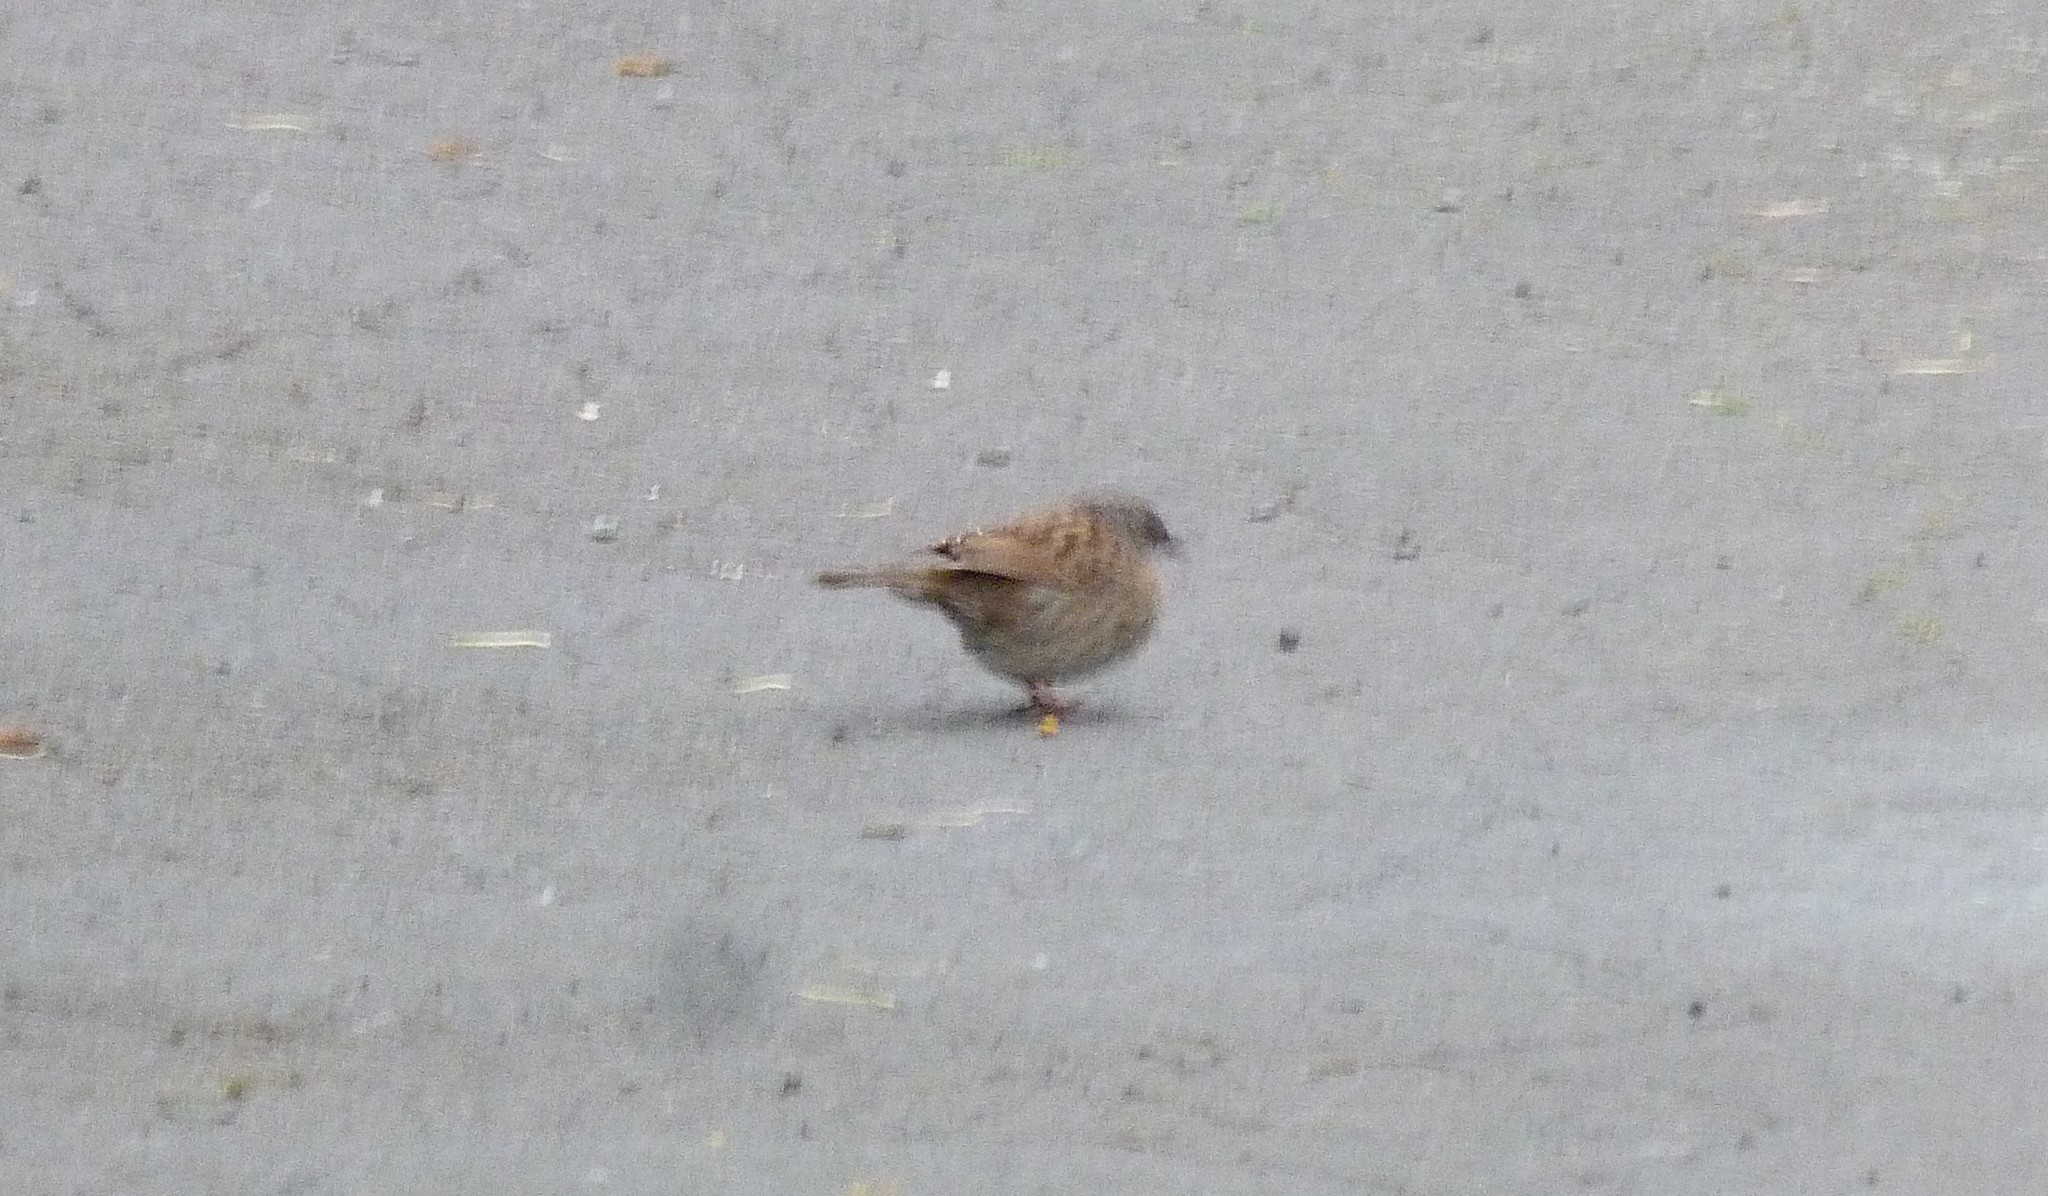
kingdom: Animalia
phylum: Chordata
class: Aves
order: Passeriformes
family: Prunellidae
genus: Prunella
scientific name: Prunella modularis
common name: Dunnock
